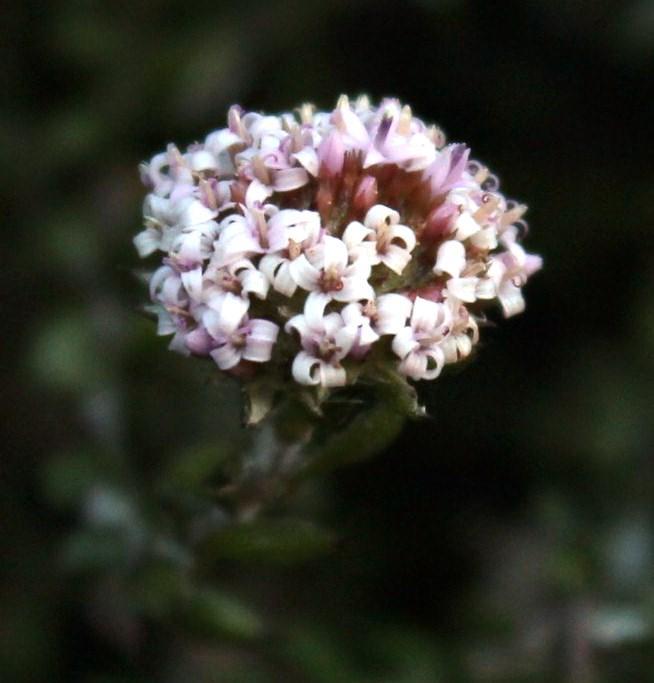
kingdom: Plantae
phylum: Tracheophyta
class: Magnoliopsida
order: Asterales
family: Asteraceae
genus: Stoebe
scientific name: Stoebe prostrata
